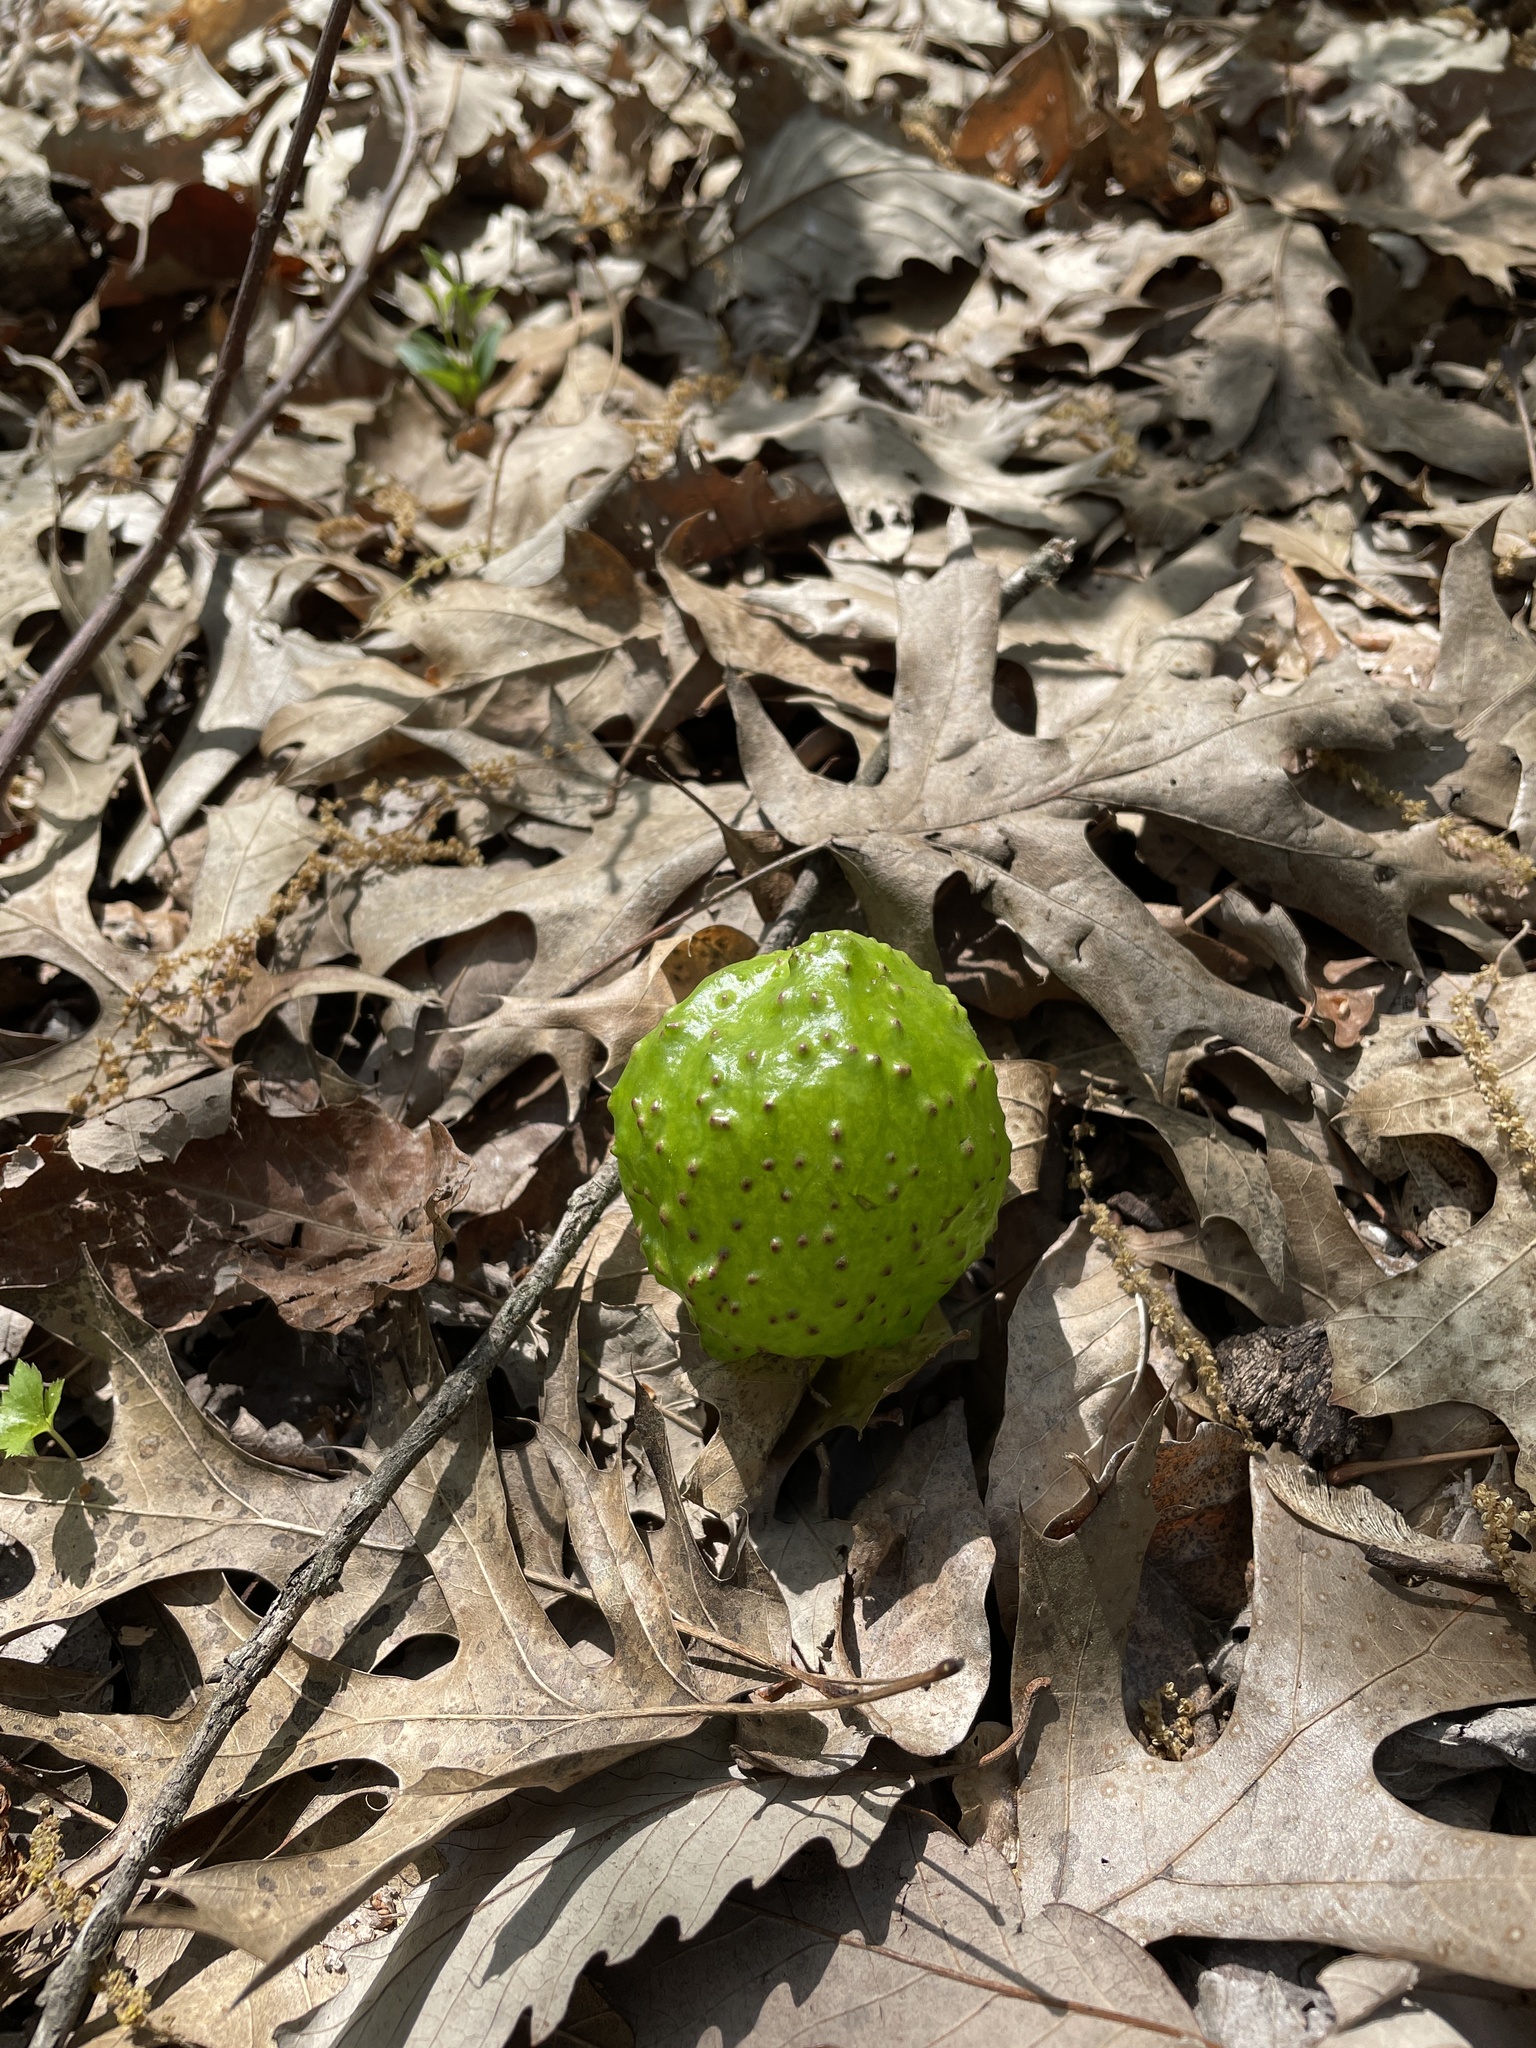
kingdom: Animalia
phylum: Arthropoda
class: Insecta
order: Hymenoptera
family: Cynipidae
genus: Amphibolips
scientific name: Amphibolips
